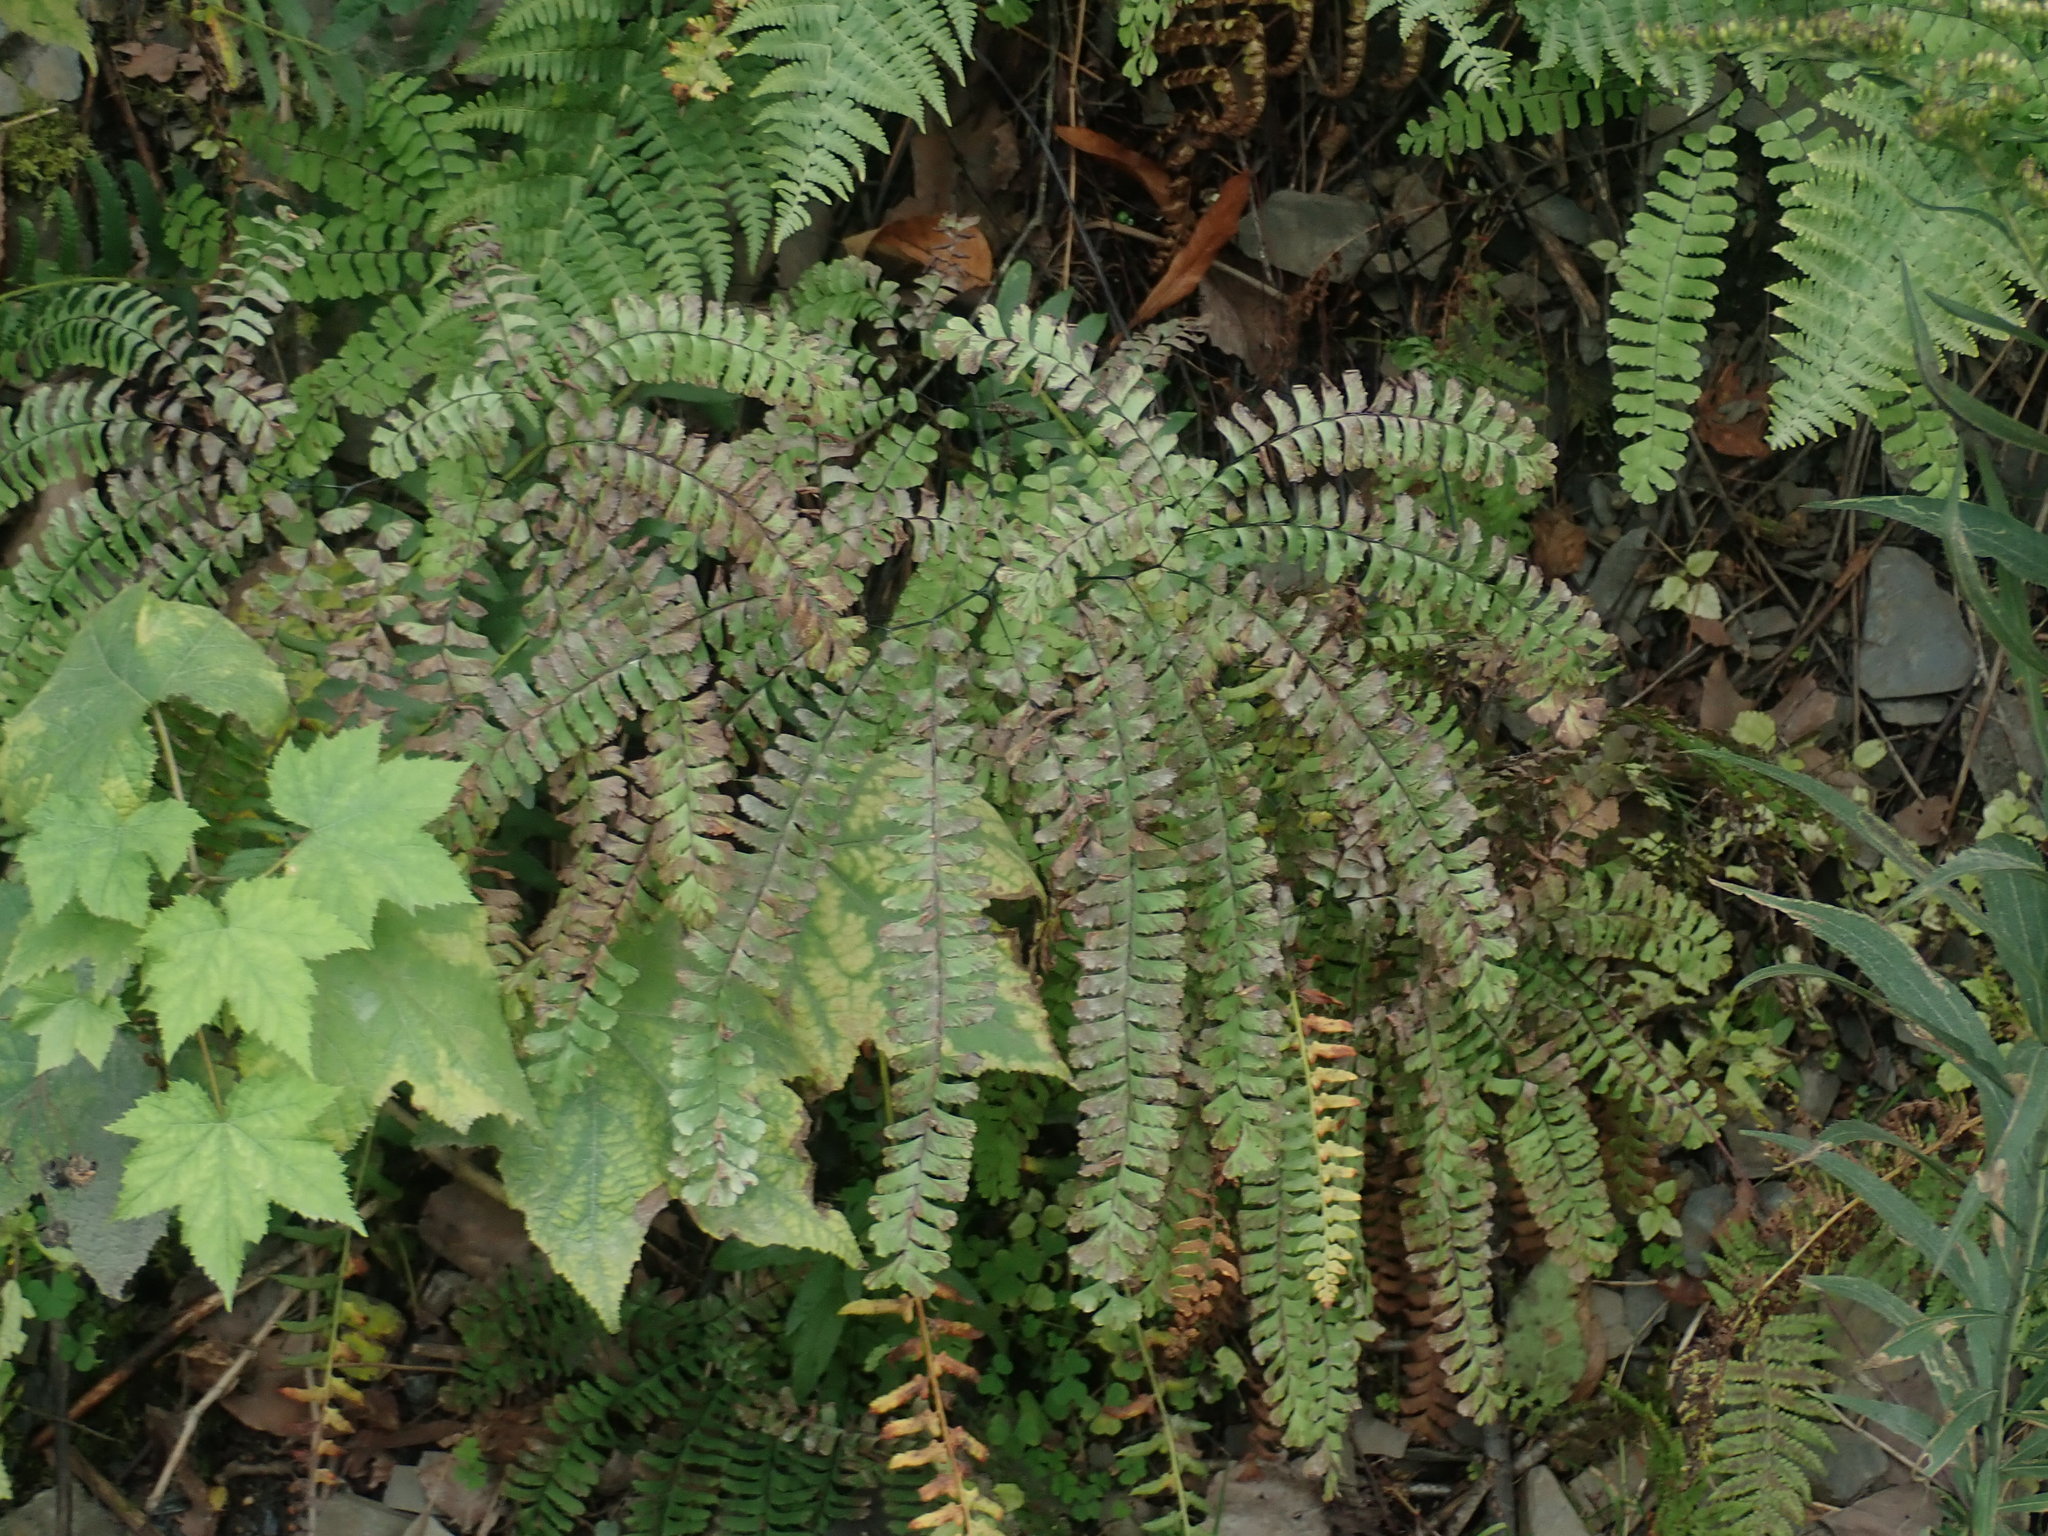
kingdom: Plantae
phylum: Tracheophyta
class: Polypodiopsida
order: Polypodiales
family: Pteridaceae
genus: Adiantum
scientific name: Adiantum pedatum
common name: Five-finger fern
